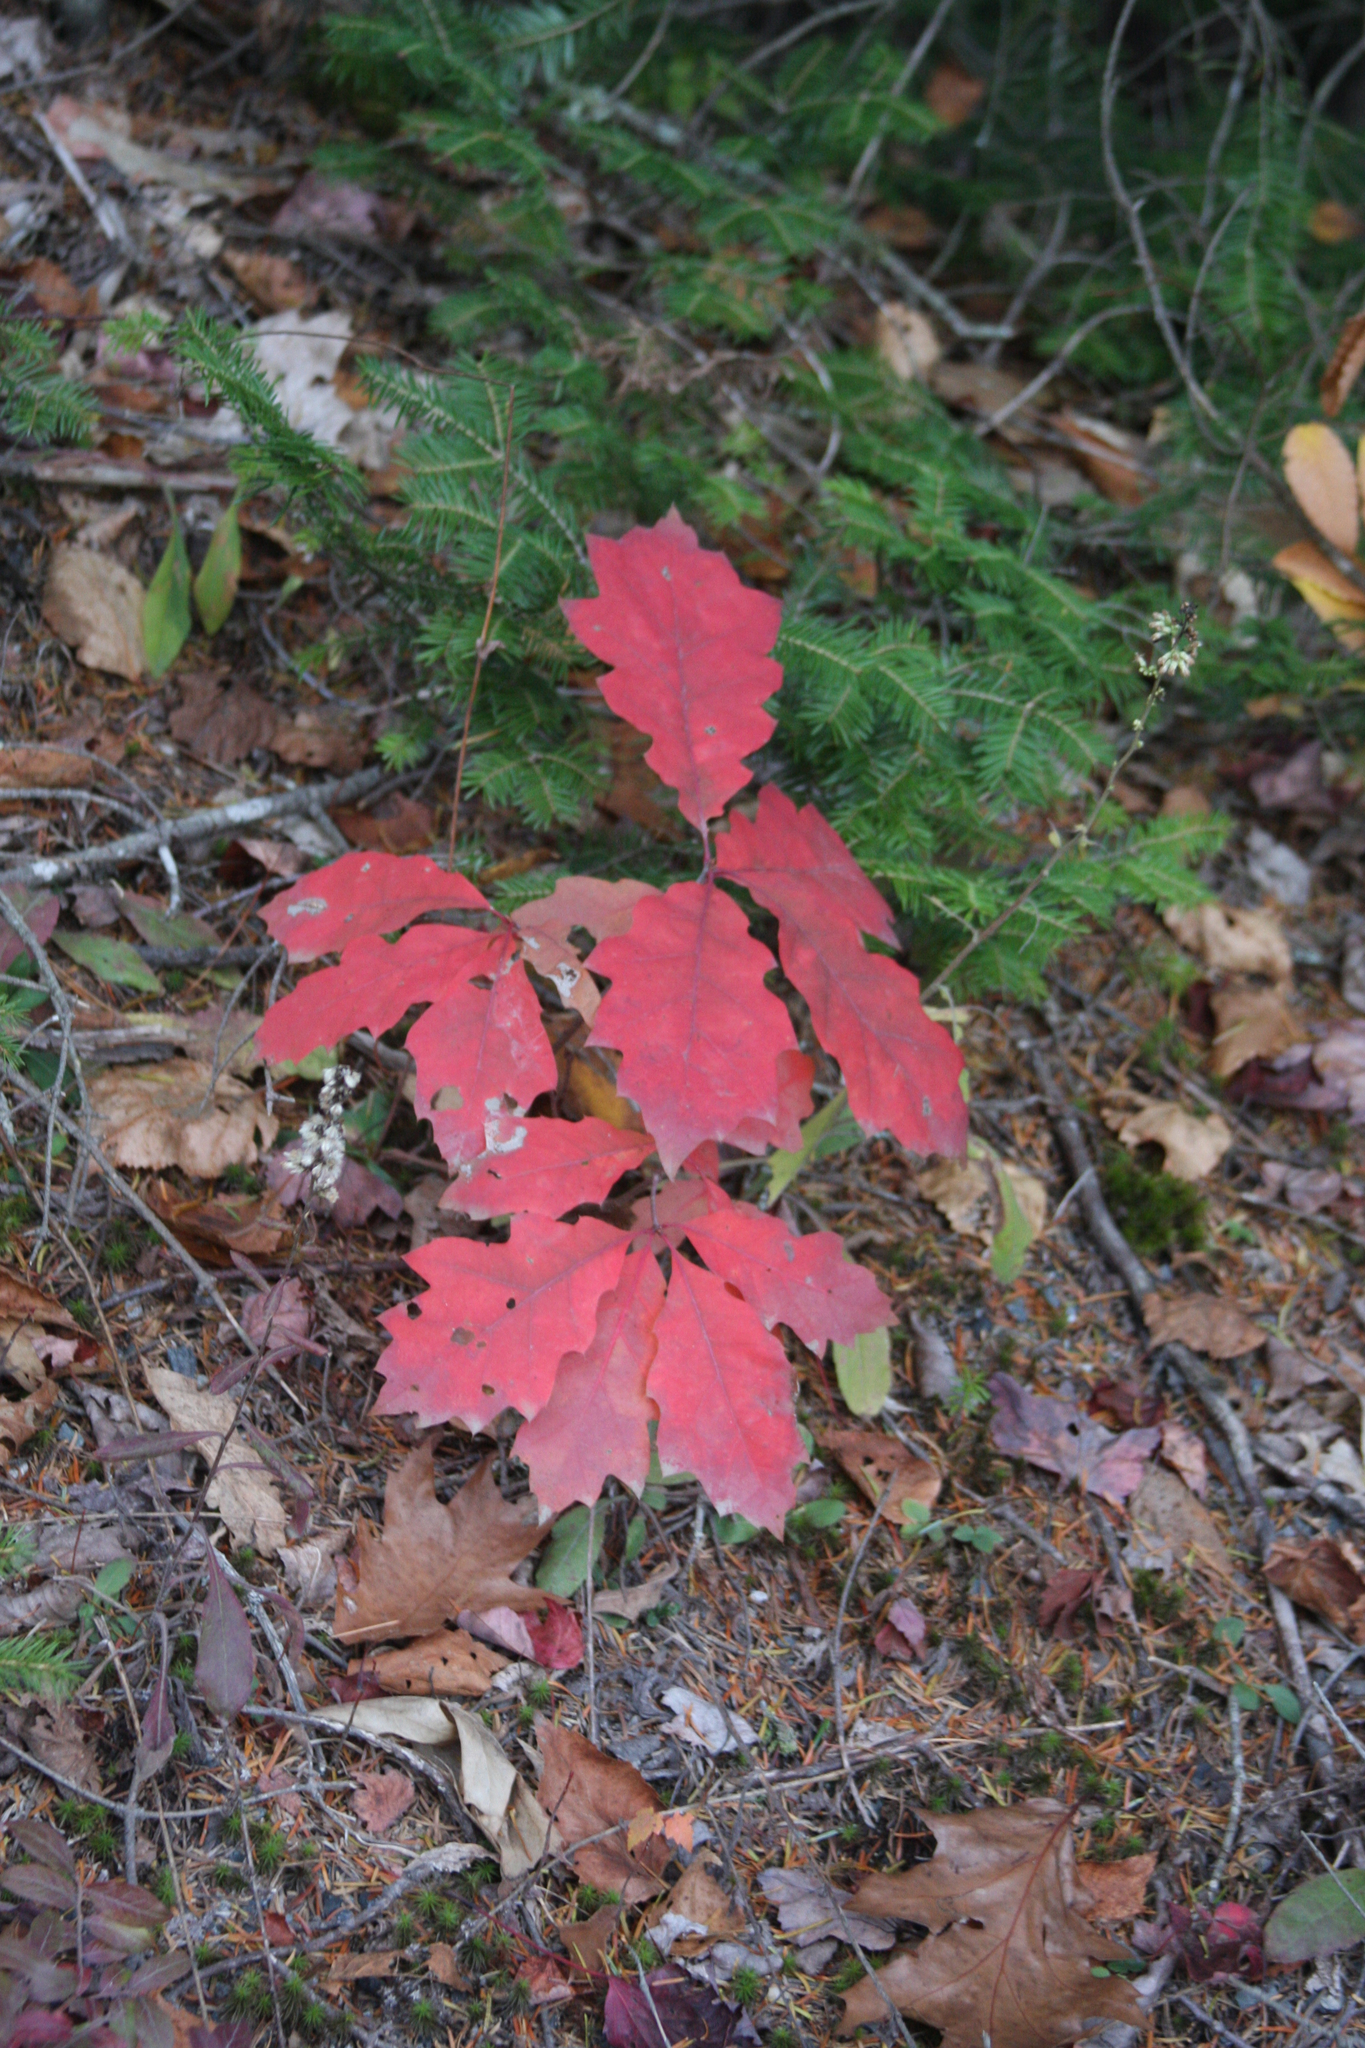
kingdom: Plantae
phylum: Tracheophyta
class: Magnoliopsida
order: Fagales
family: Fagaceae
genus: Quercus
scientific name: Quercus rubra
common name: Red oak
